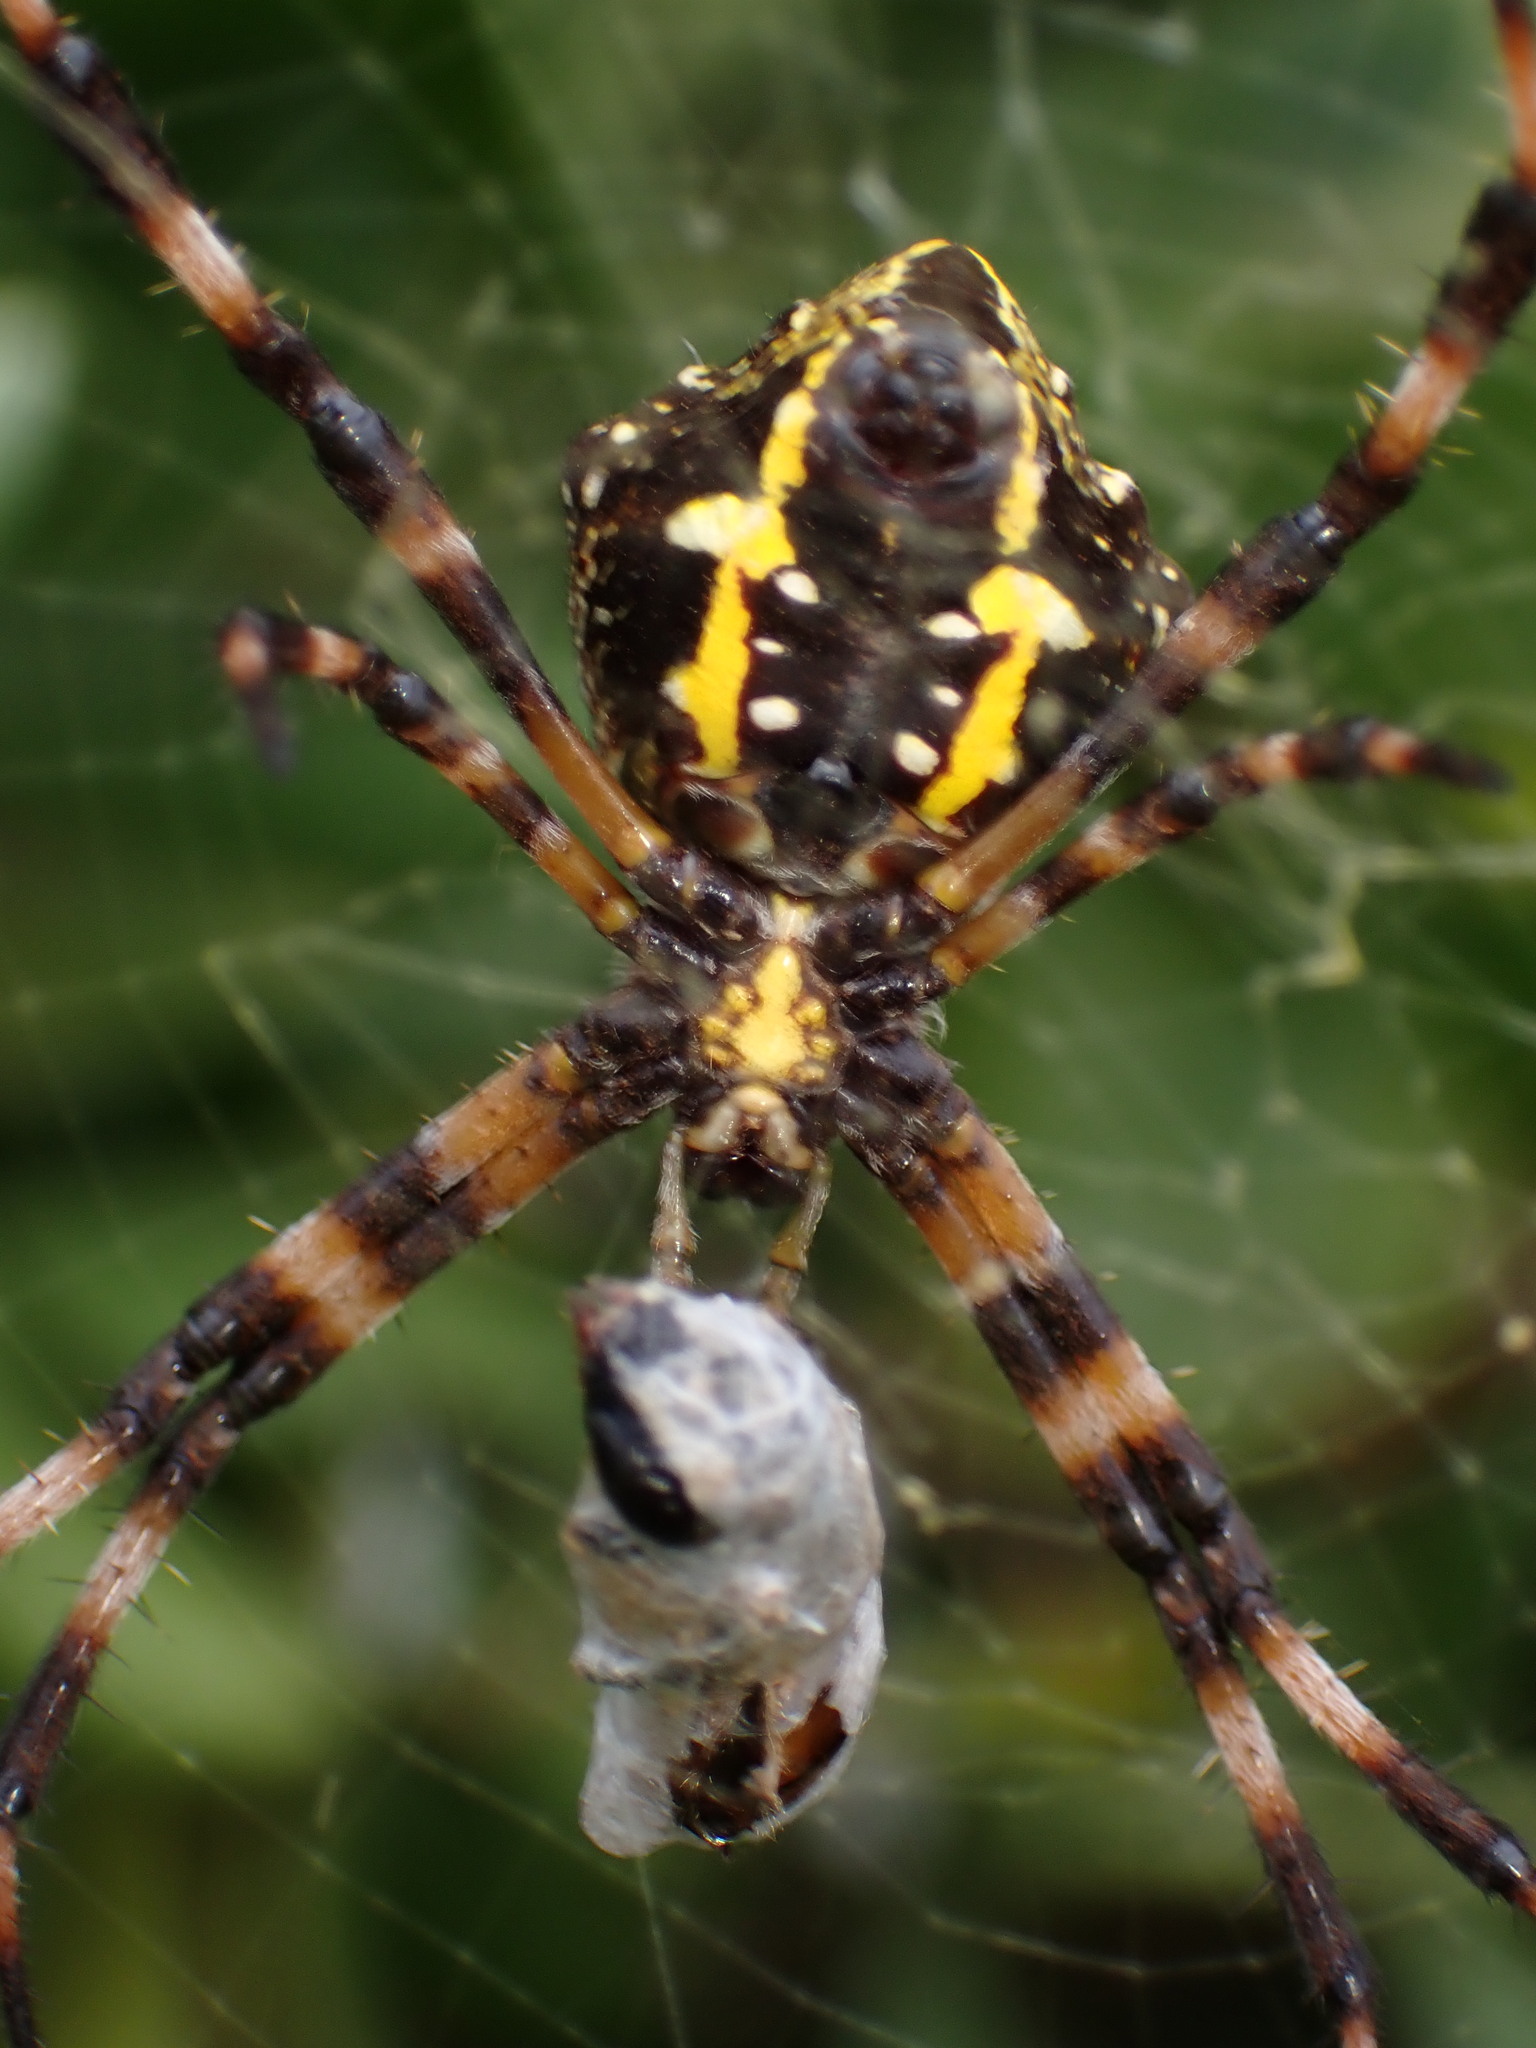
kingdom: Animalia
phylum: Arthropoda
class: Arachnida
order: Araneae
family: Araneidae
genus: Argiope
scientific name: Argiope appensa
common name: Garden spider
